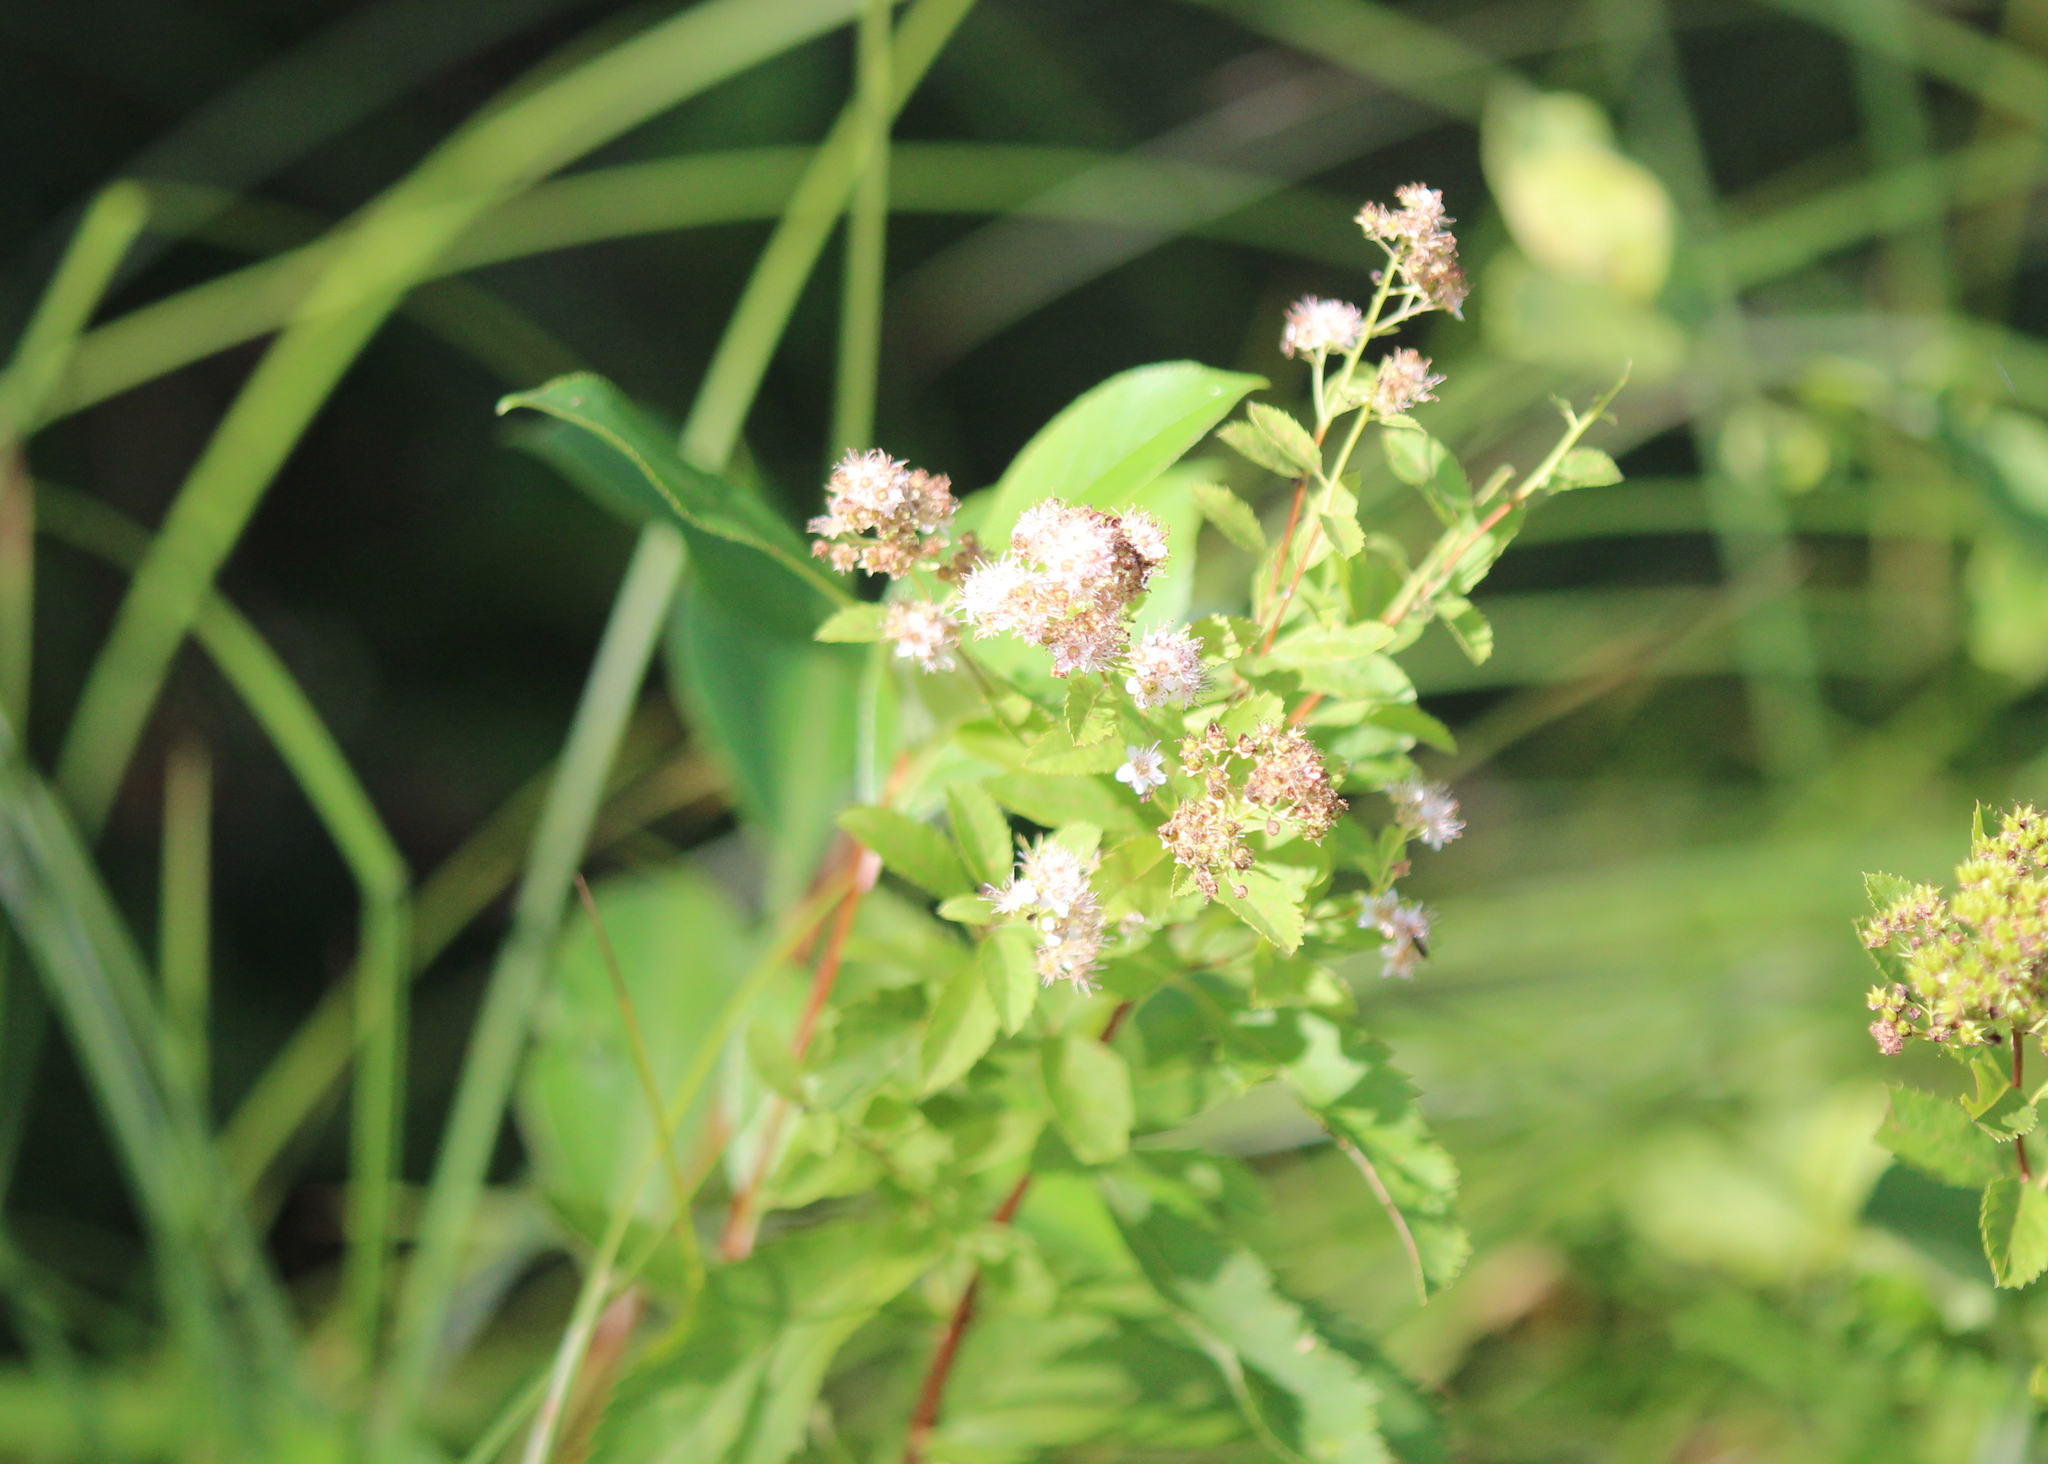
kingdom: Plantae
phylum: Tracheophyta
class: Magnoliopsida
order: Rosales
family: Rosaceae
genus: Spiraea
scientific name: Spiraea alba
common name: Pale bridewort
